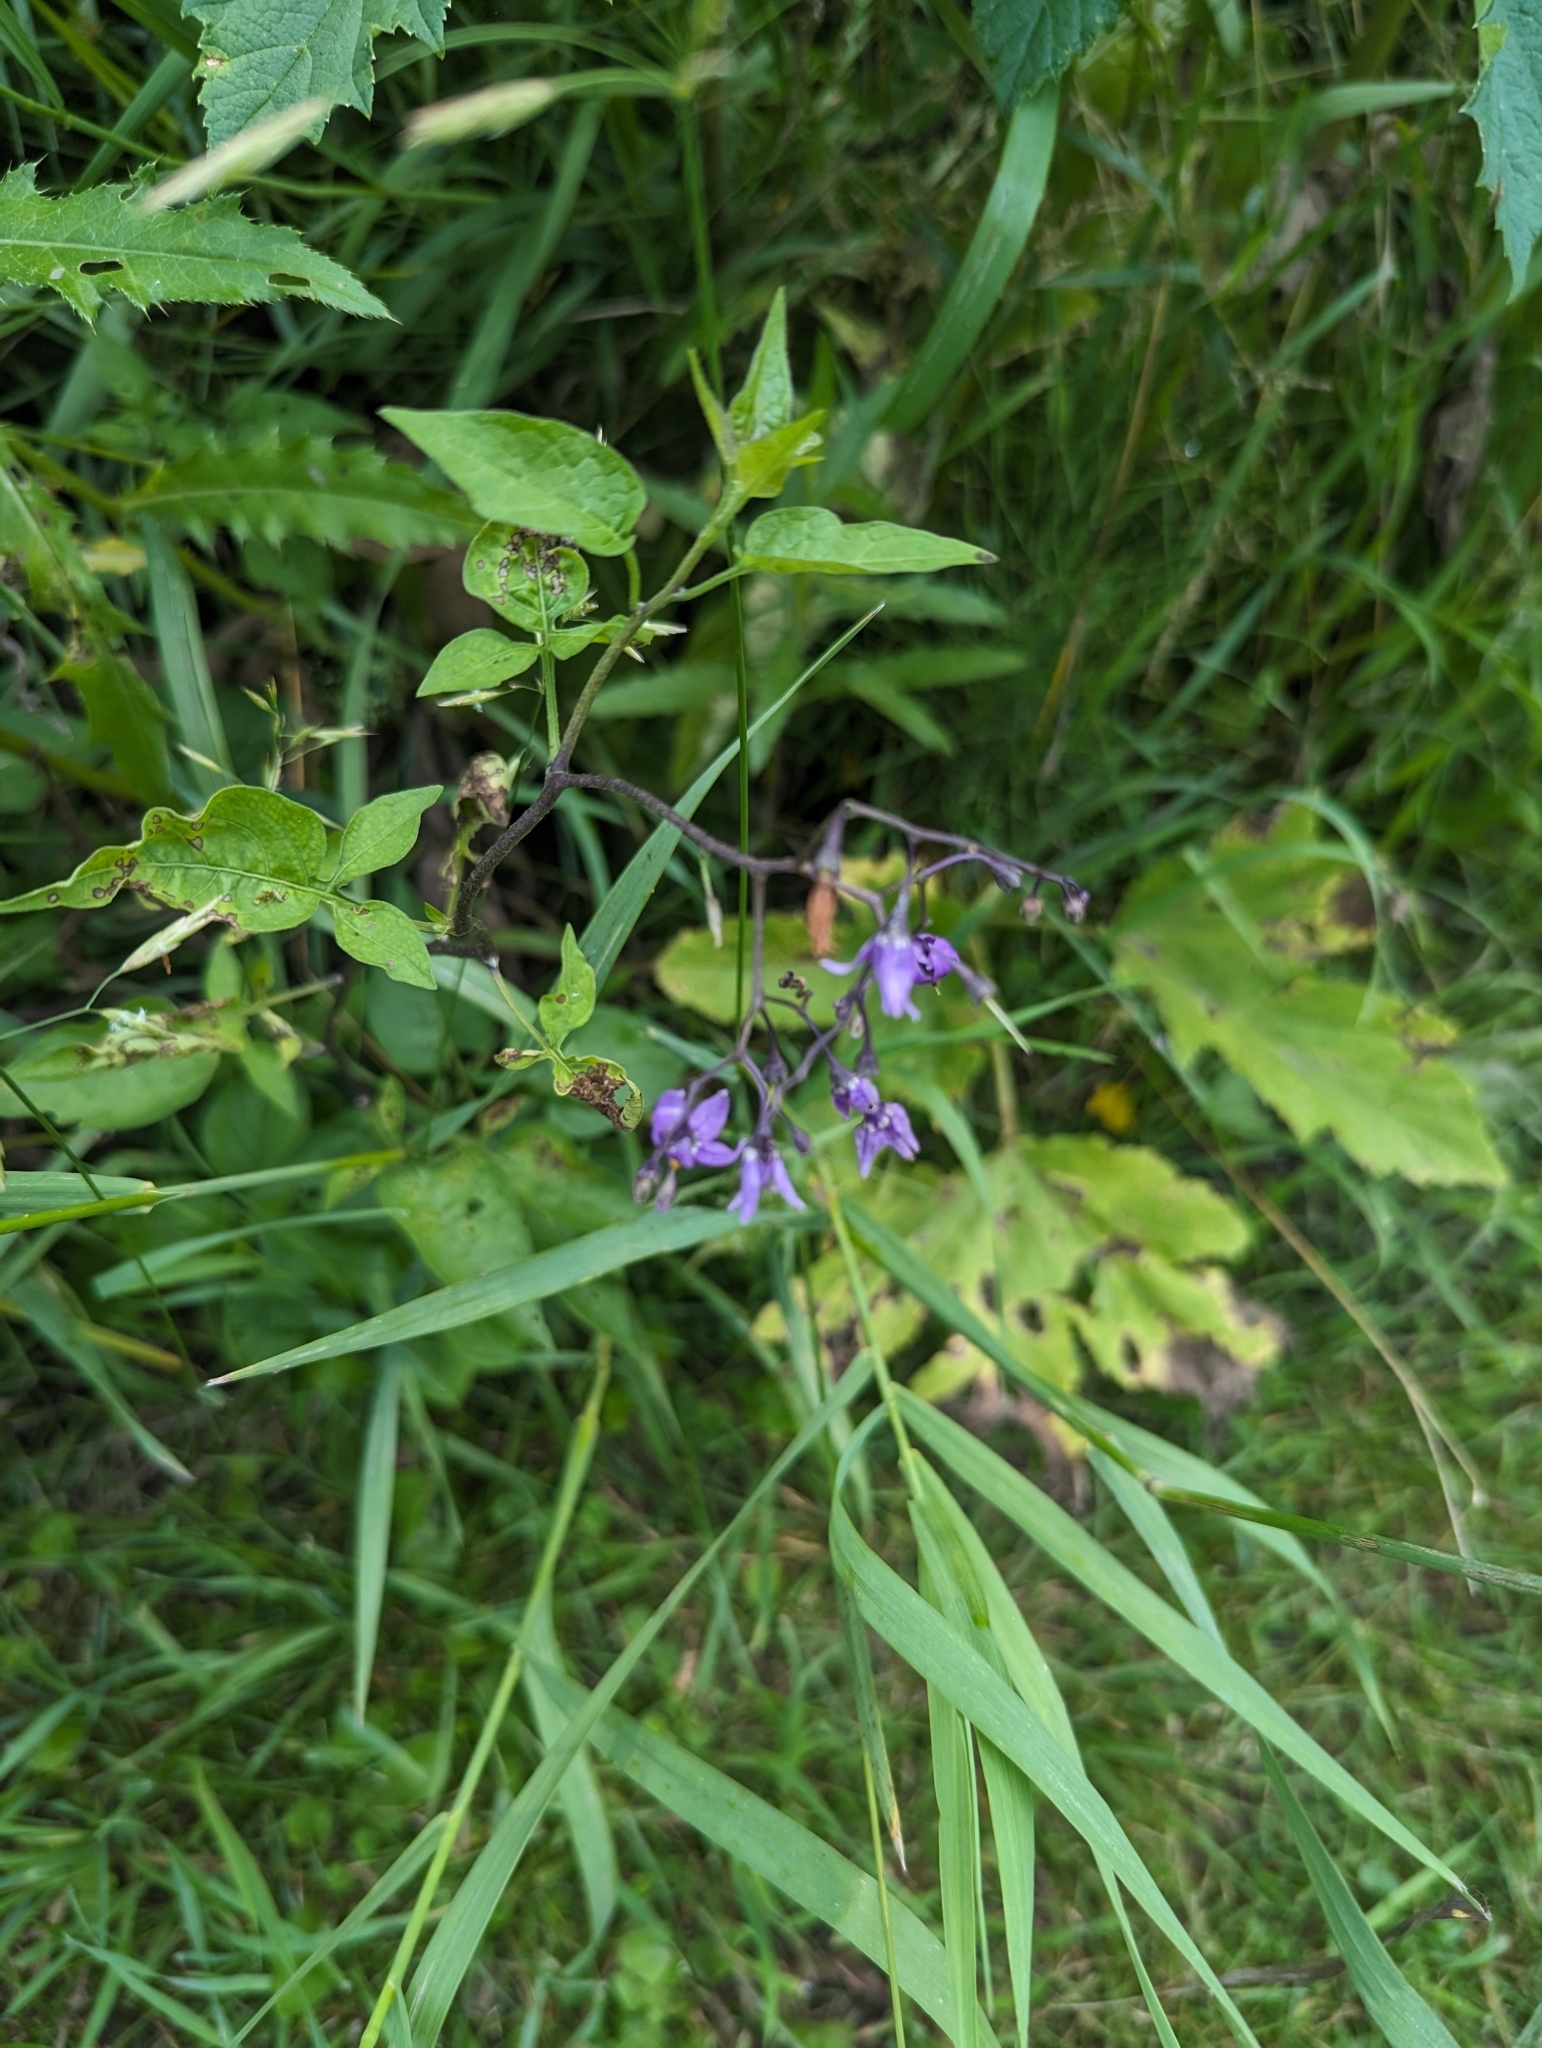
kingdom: Plantae
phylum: Tracheophyta
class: Magnoliopsida
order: Solanales
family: Solanaceae
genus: Solanum
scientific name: Solanum dulcamara
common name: Climbing nightshade
